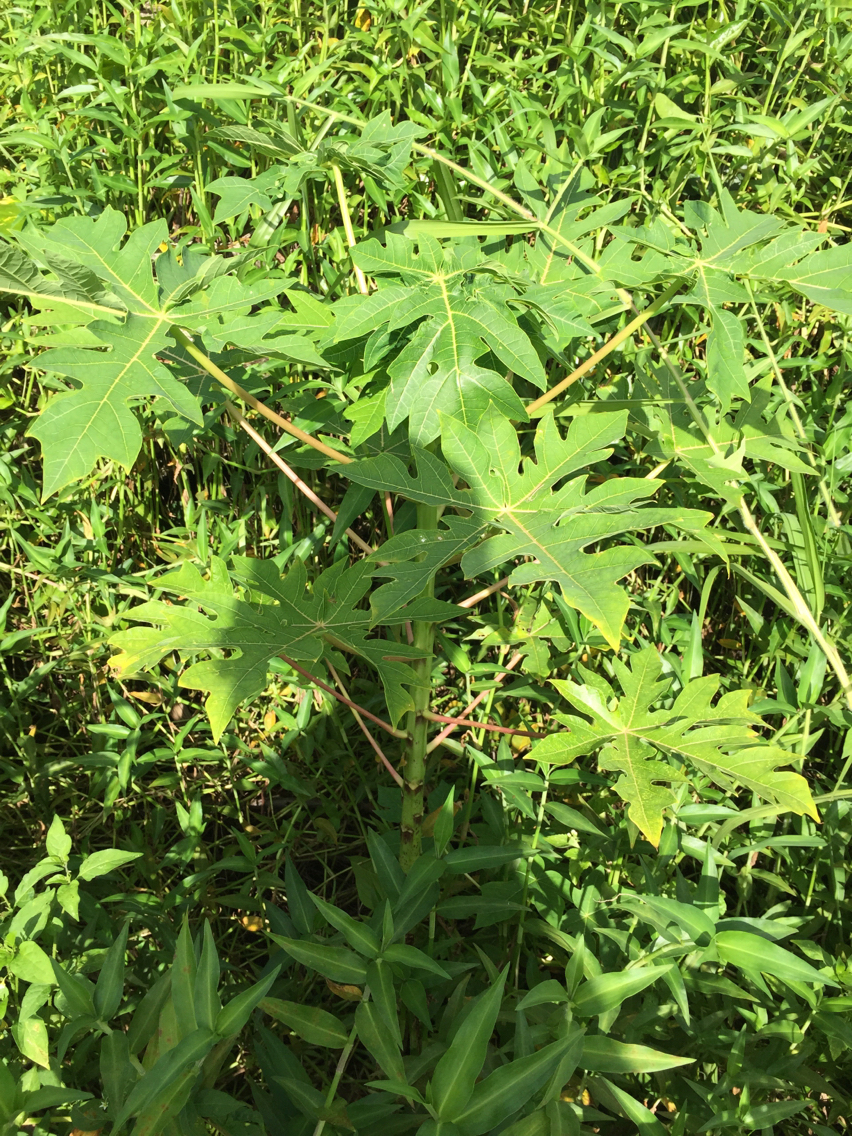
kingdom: Plantae
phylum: Tracheophyta
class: Magnoliopsida
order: Brassicales
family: Caricaceae
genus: Carica
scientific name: Carica papaya
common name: Papaya
